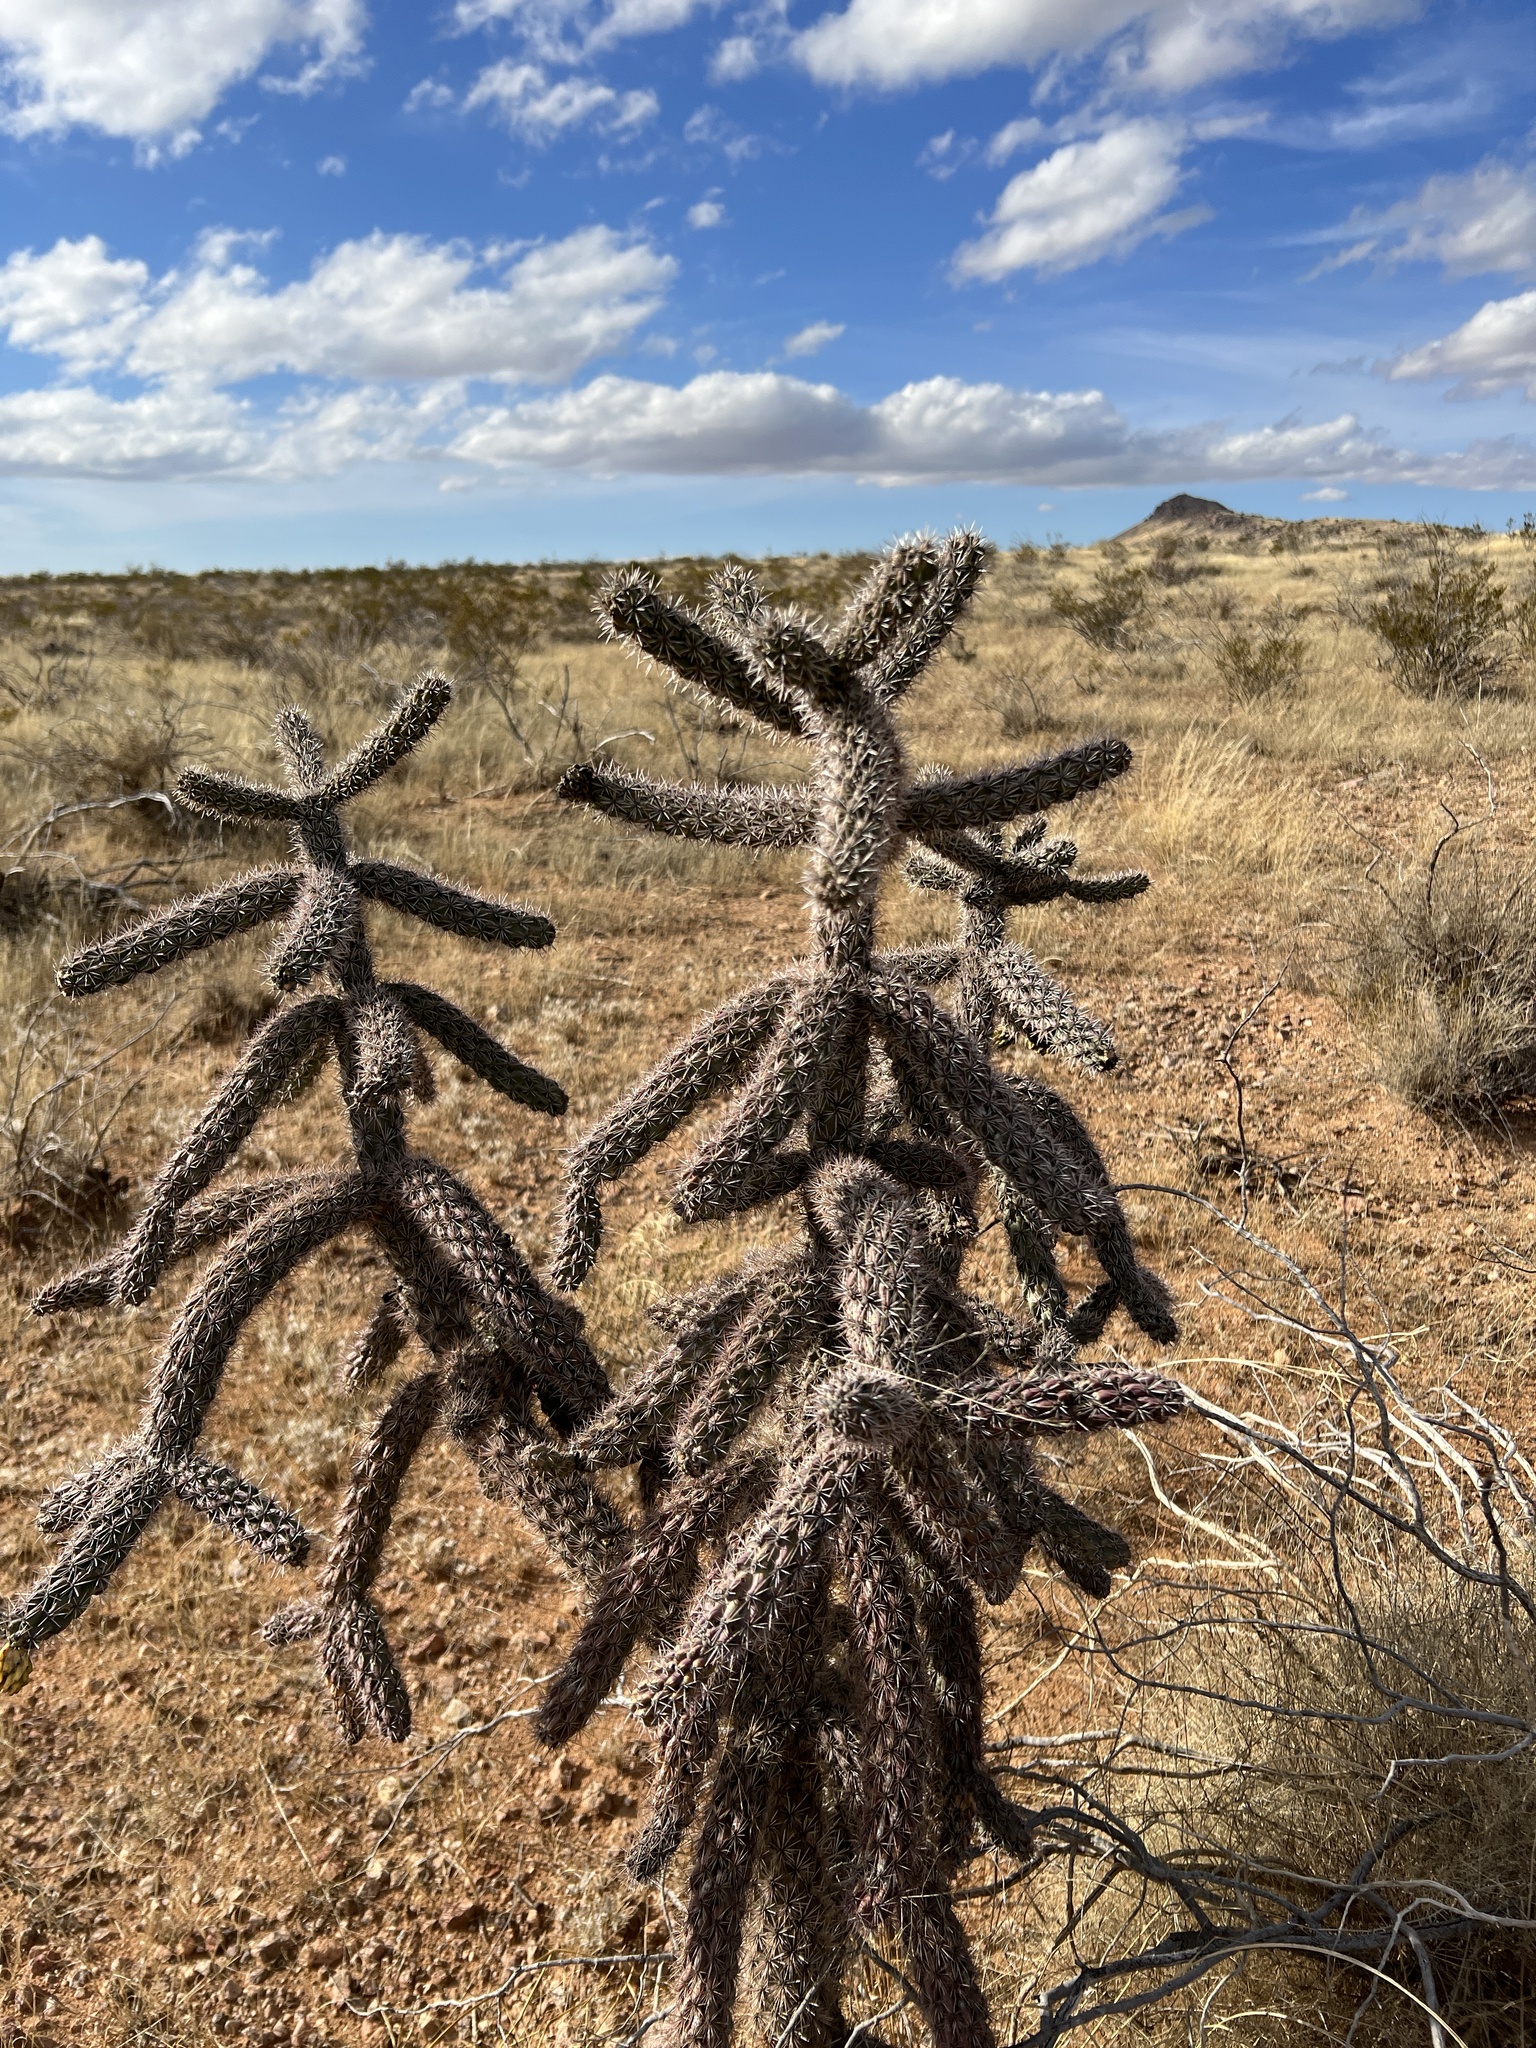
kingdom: Plantae
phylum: Tracheophyta
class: Magnoliopsida
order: Caryophyllales
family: Cactaceae
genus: Cylindropuntia
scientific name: Cylindropuntia imbricata
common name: Candelabrum cactus
